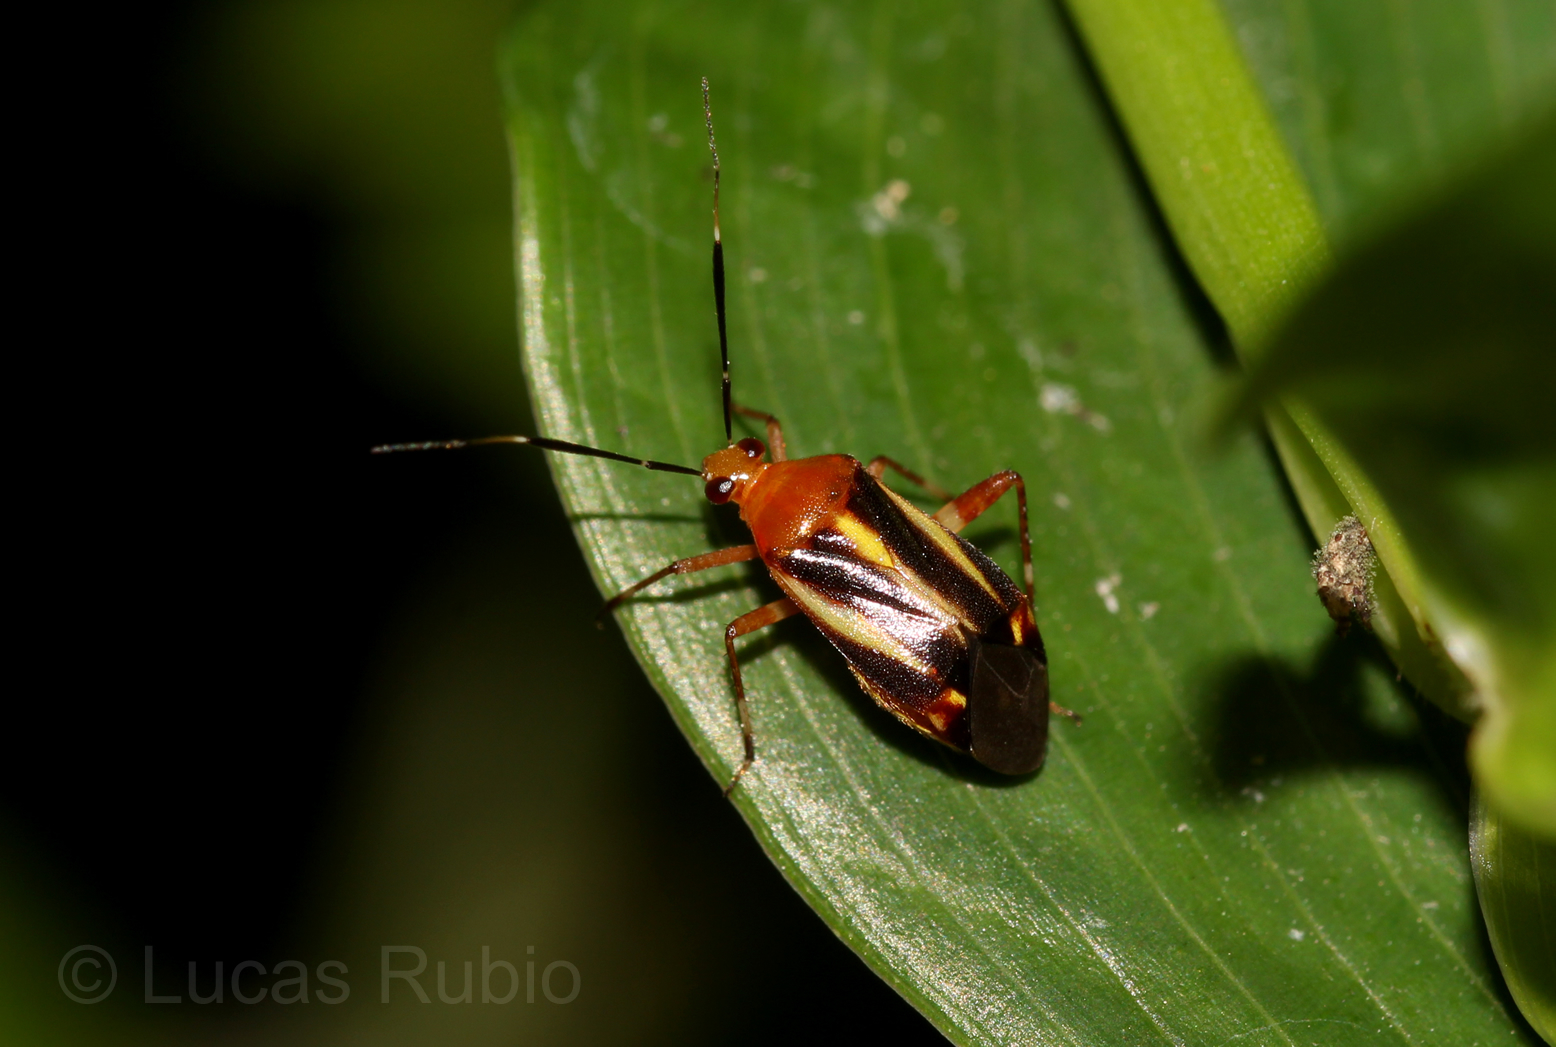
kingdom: Animalia
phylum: Arthropoda
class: Insecta
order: Hemiptera
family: Miridae
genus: Horciasinus
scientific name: Horciasinus signoreti
